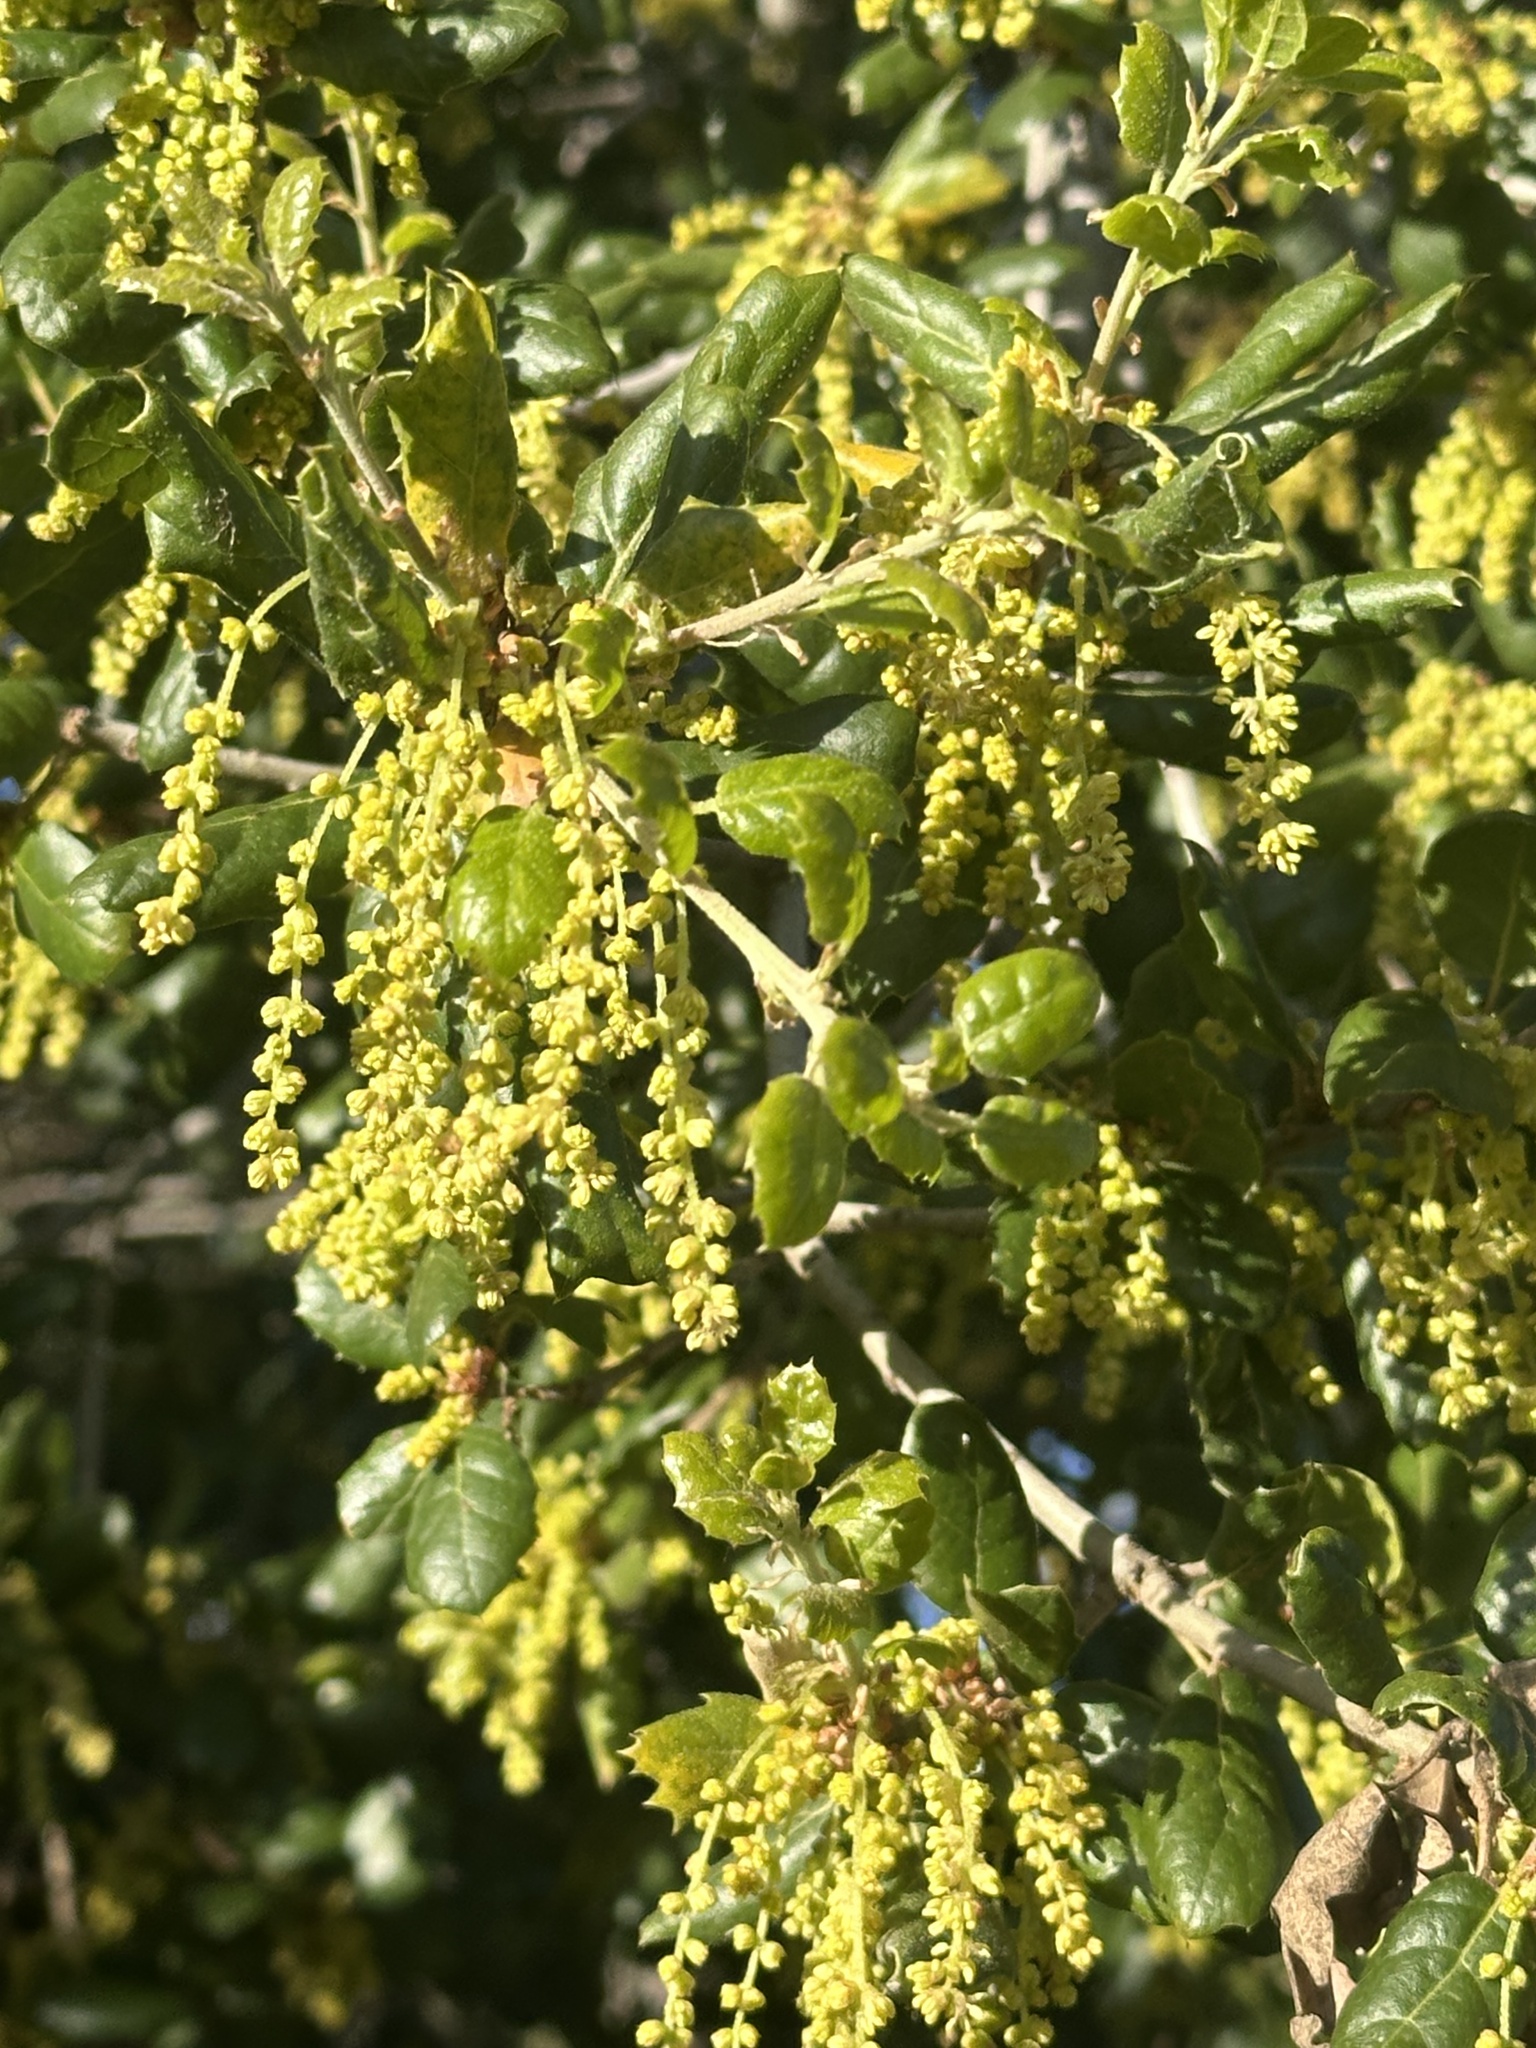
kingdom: Plantae
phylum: Tracheophyta
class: Magnoliopsida
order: Fagales
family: Fagaceae
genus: Quercus
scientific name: Quercus agrifolia
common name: California live oak
